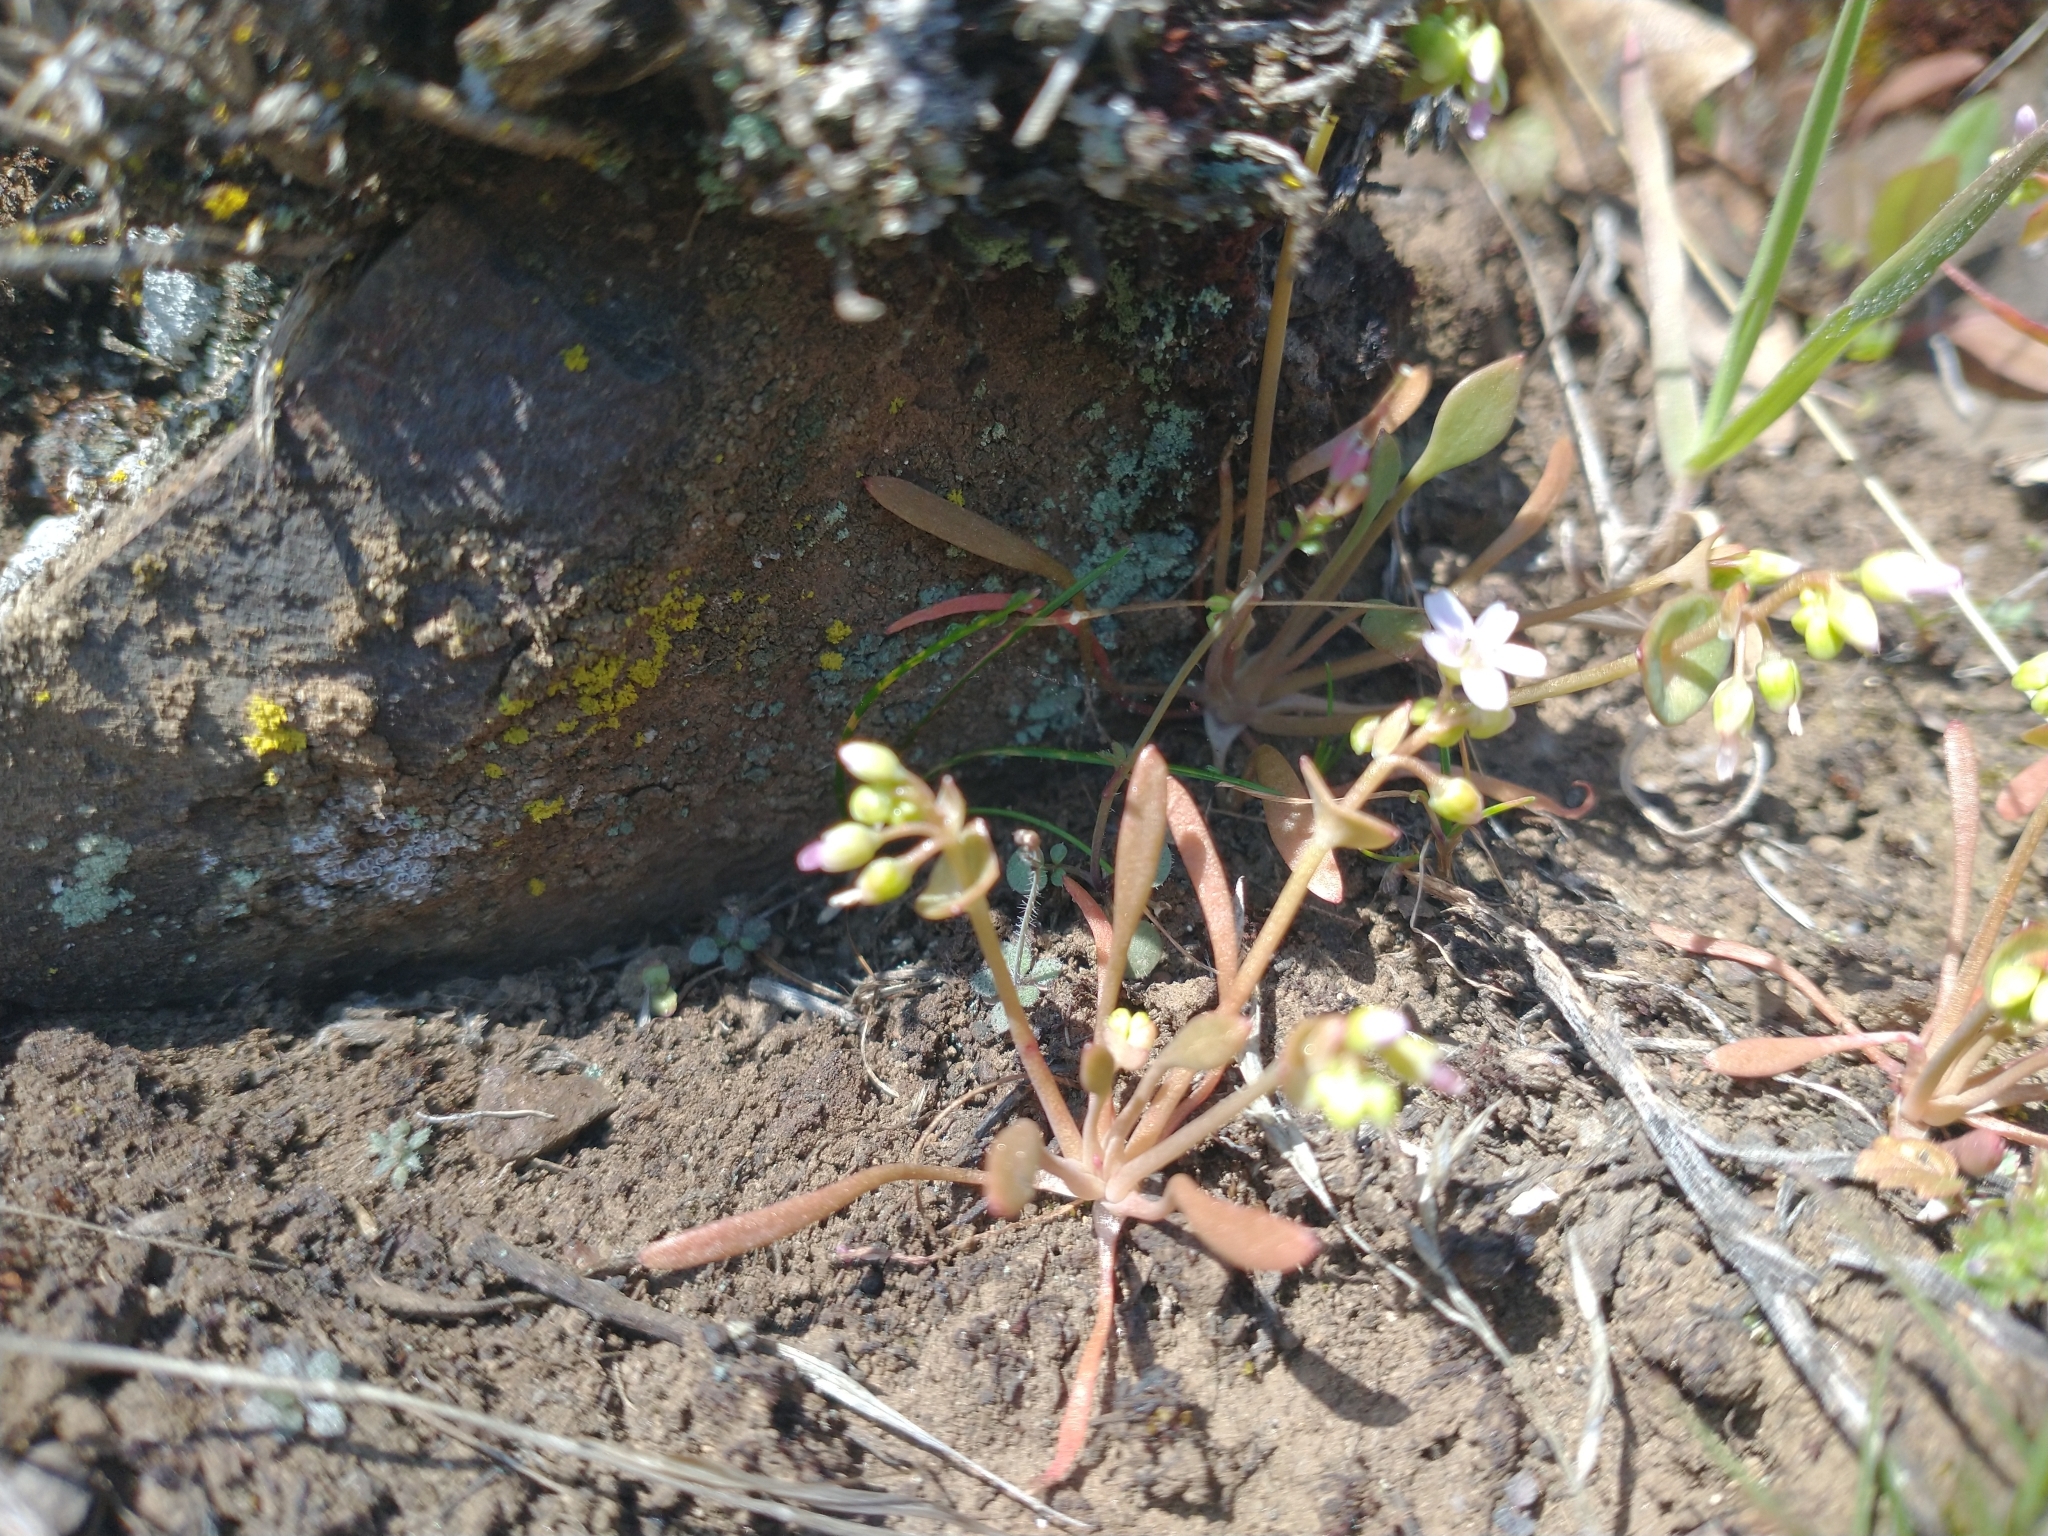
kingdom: Plantae
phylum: Tracheophyta
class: Magnoliopsida
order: Caryophyllales
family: Montiaceae
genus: Claytonia
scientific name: Claytonia parviflora
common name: Indian-lettuce
